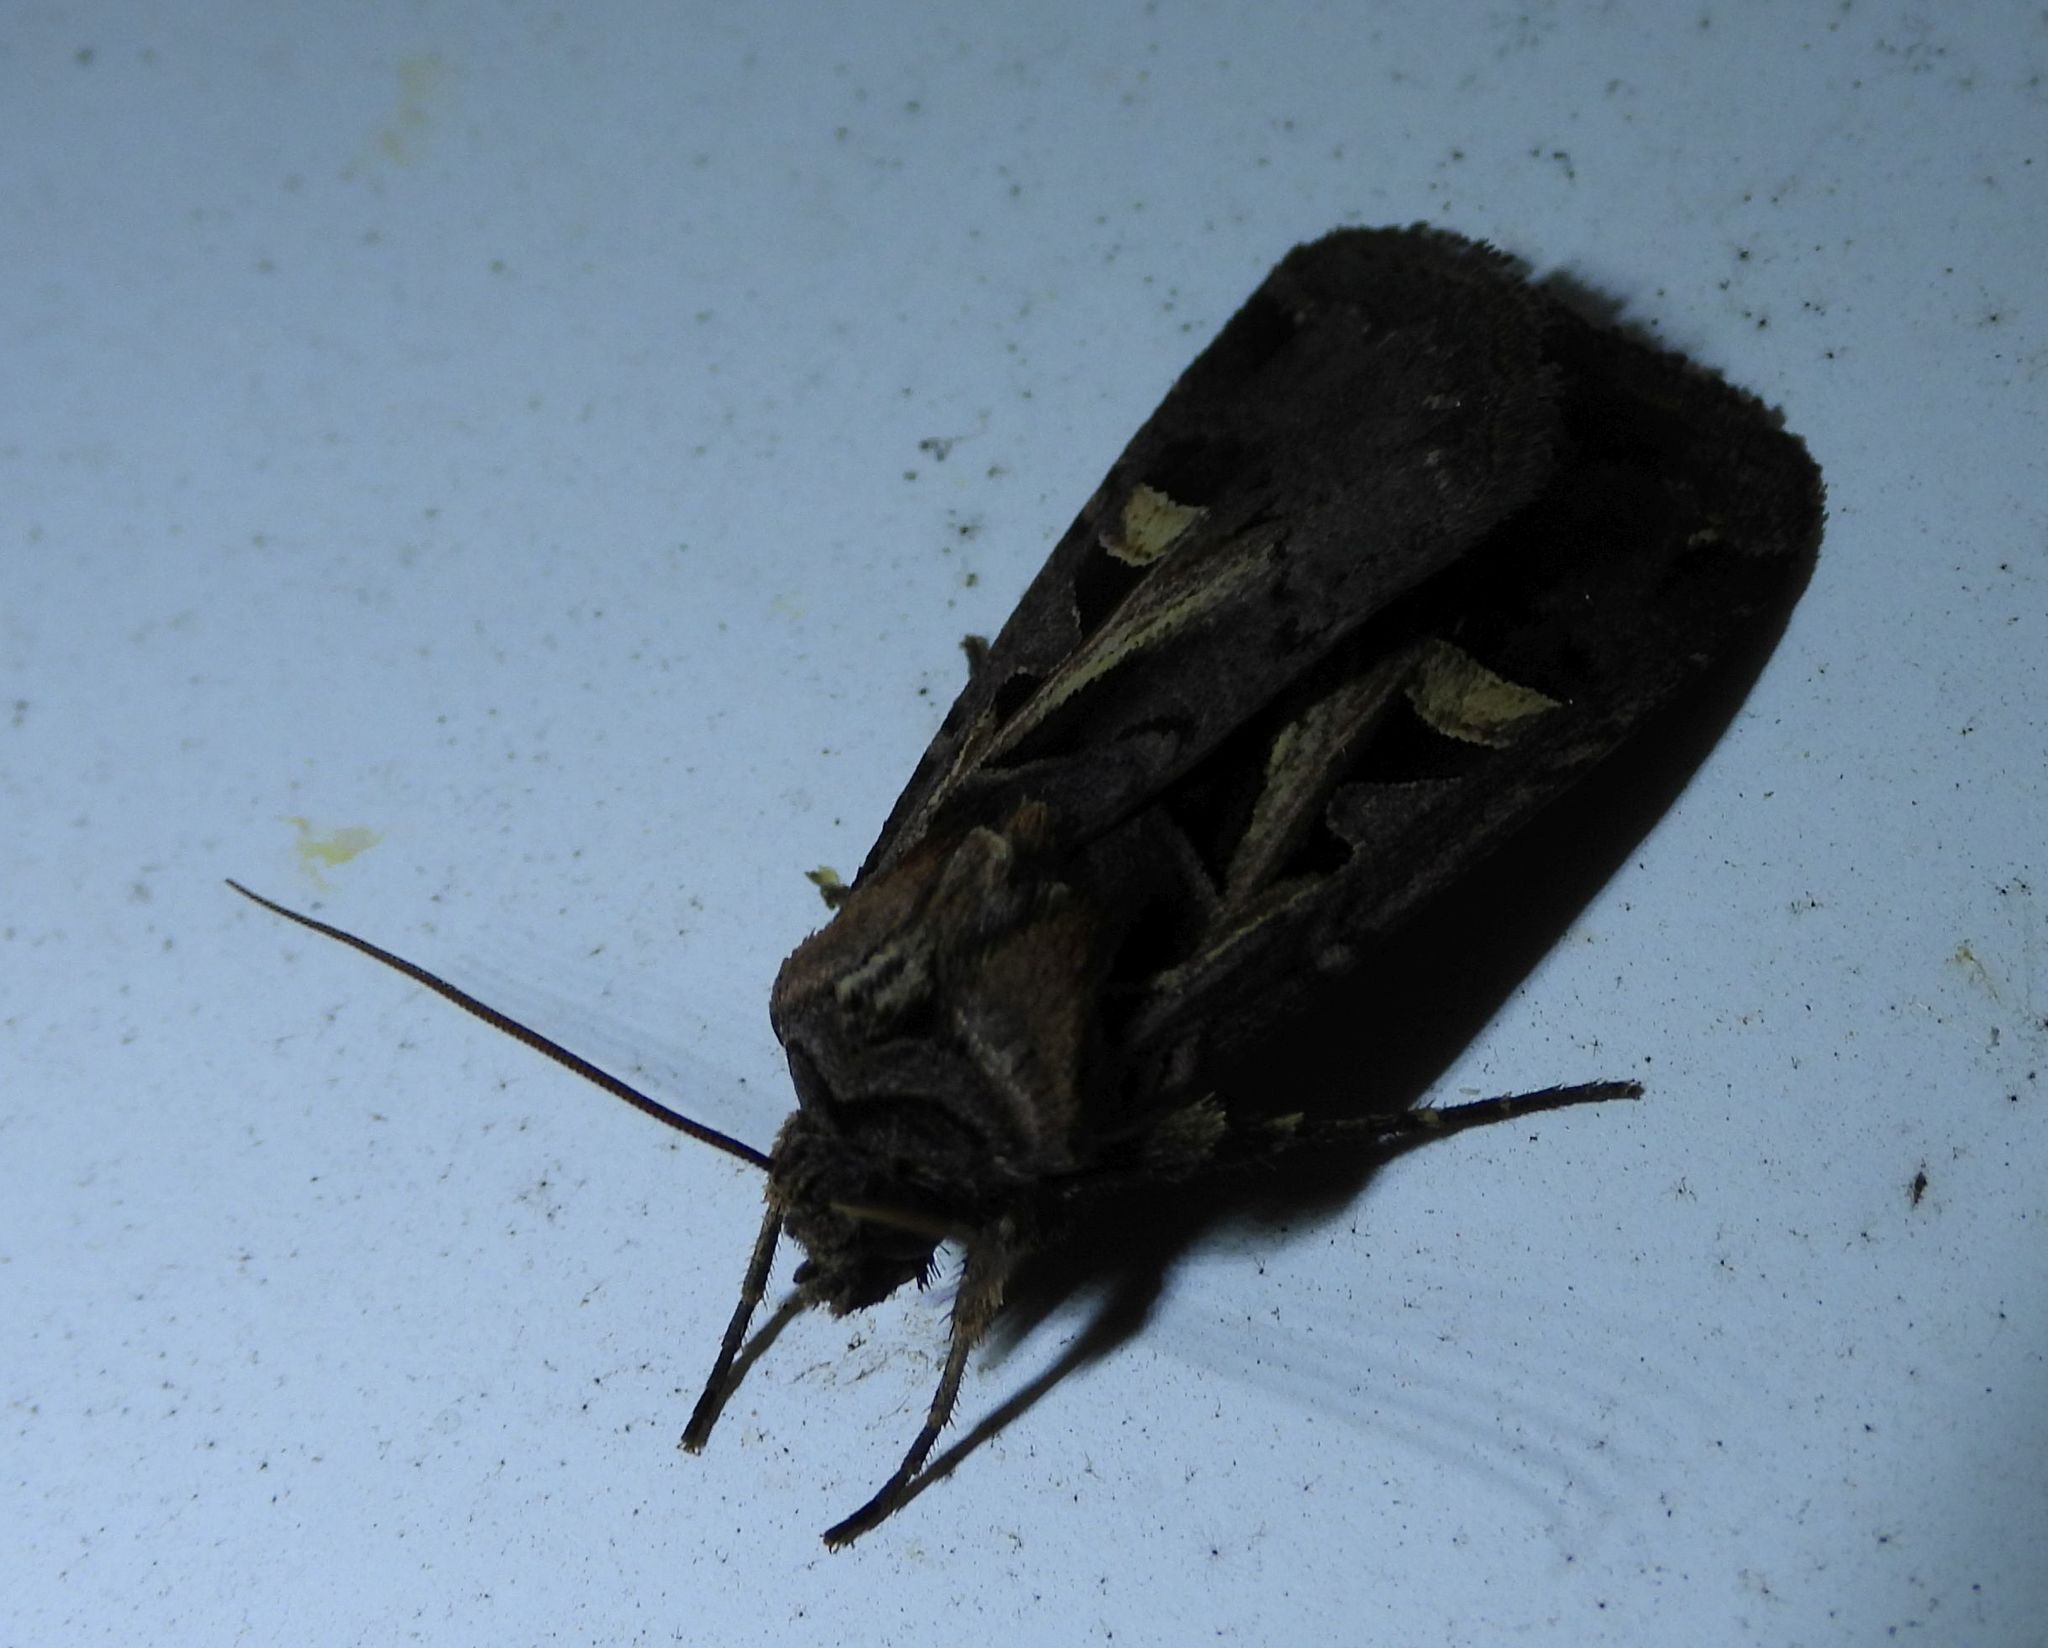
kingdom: Animalia
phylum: Arthropoda
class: Insecta
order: Lepidoptera
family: Noctuidae
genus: Feltia
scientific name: Feltia herilis
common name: Master's dart
